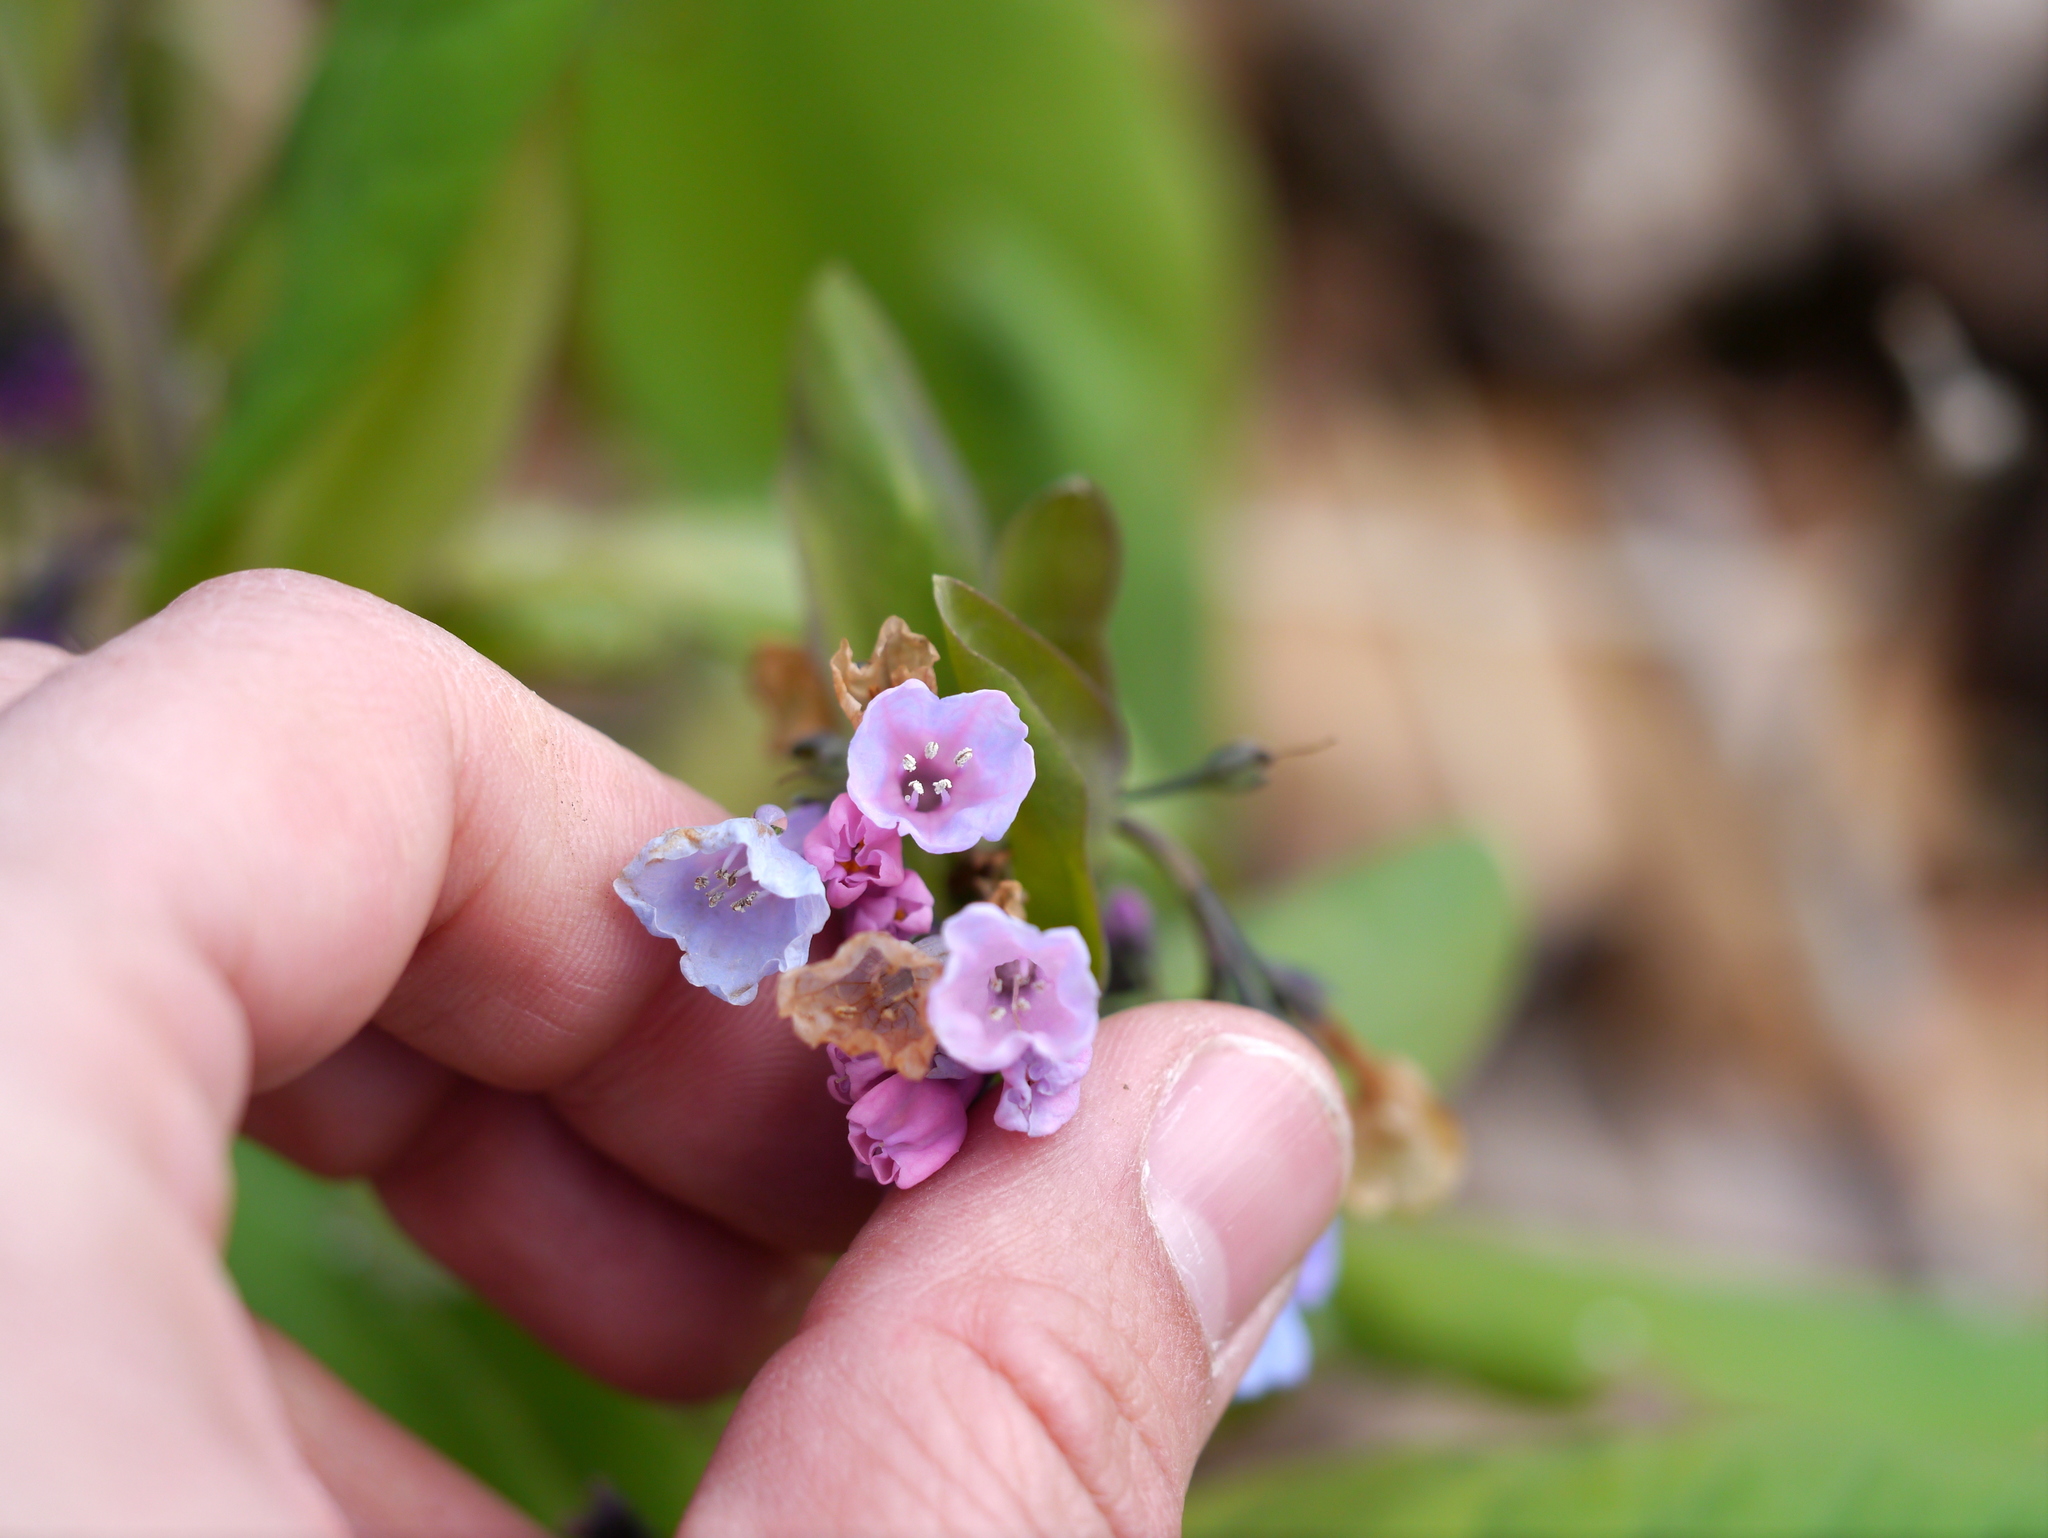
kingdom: Plantae
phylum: Tracheophyta
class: Magnoliopsida
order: Boraginales
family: Boraginaceae
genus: Mertensia
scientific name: Mertensia virginica
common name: Virginia bluebells
